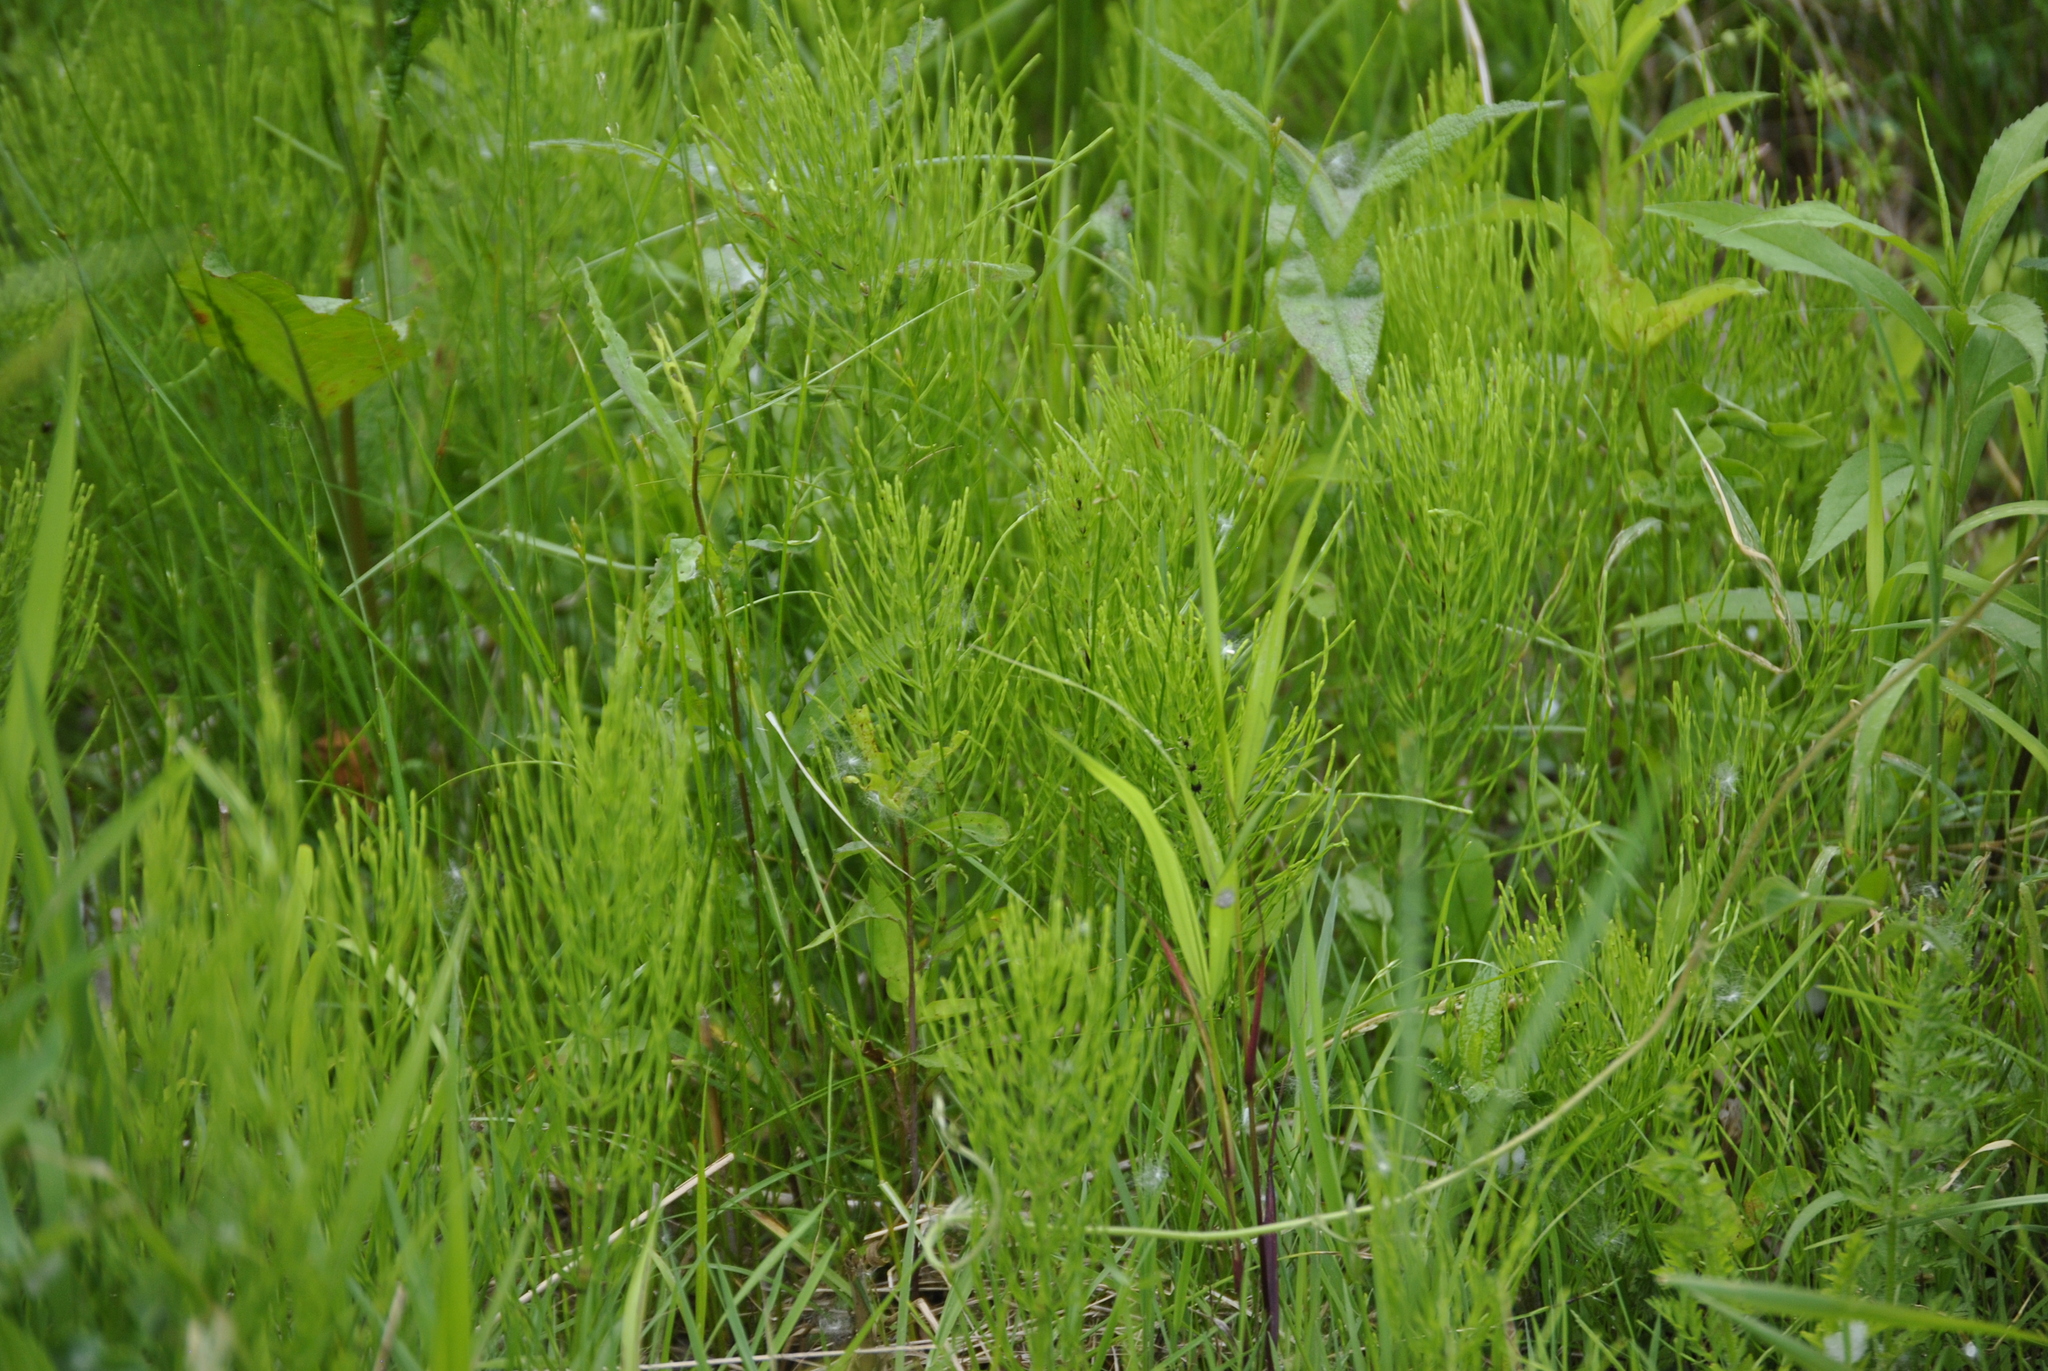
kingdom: Plantae
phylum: Tracheophyta
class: Polypodiopsida
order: Equisetales
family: Equisetaceae
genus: Equisetum
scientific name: Equisetum arvense
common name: Field horsetail
